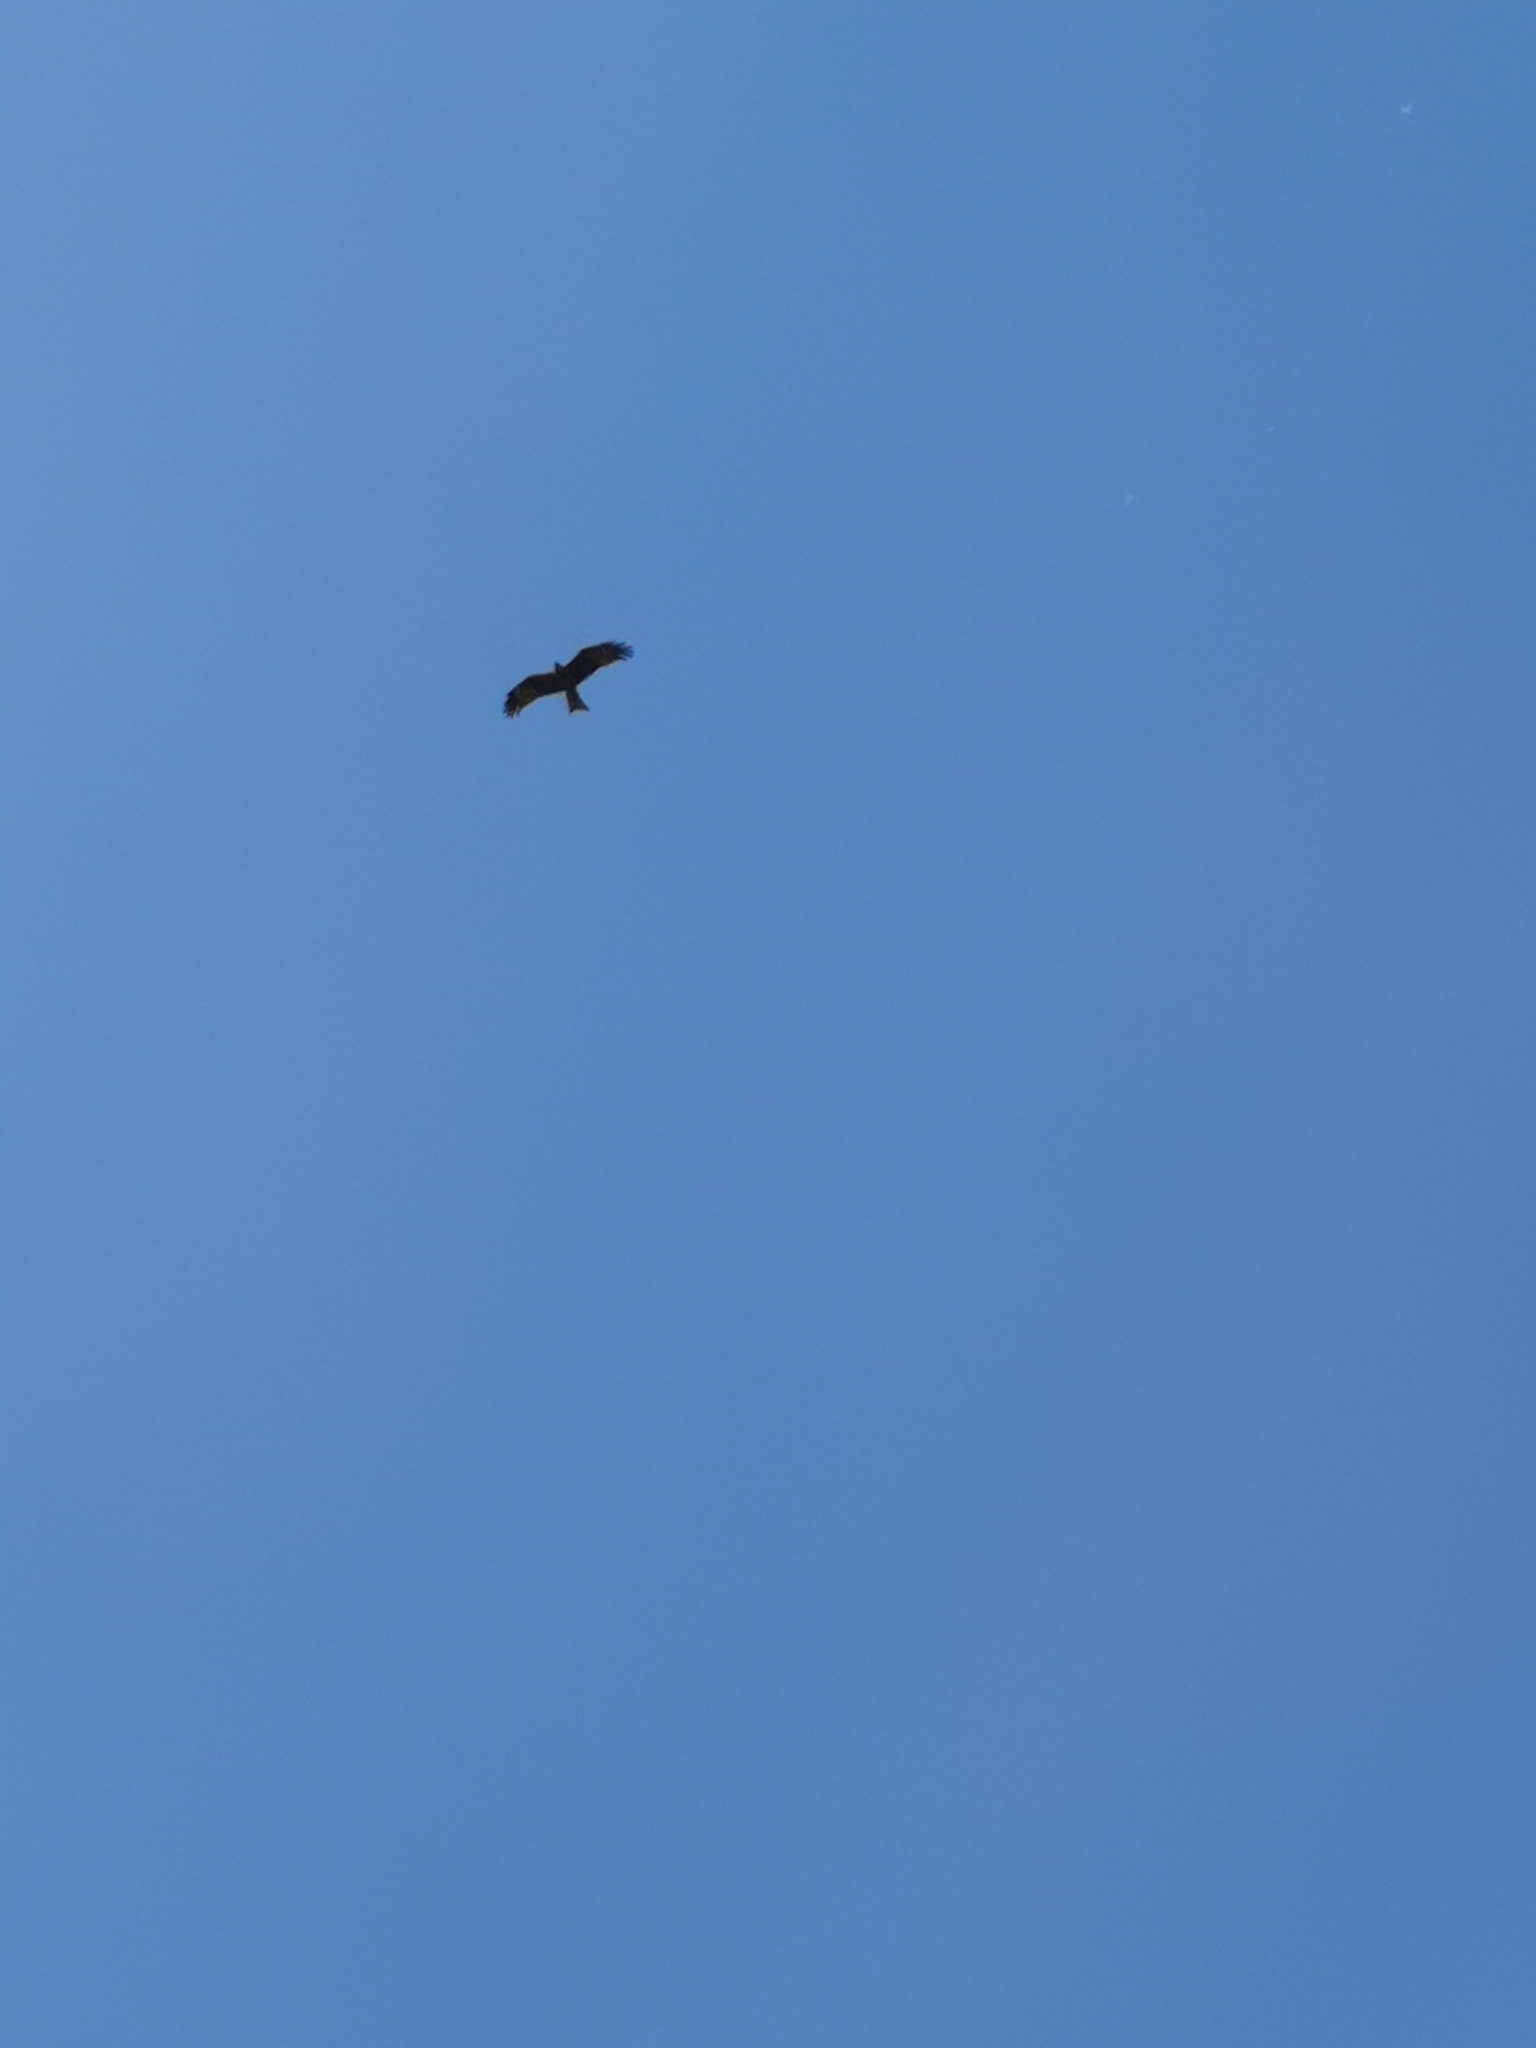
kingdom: Animalia
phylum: Chordata
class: Aves
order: Accipitriformes
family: Accipitridae
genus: Milvus
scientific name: Milvus migrans
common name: Black kite
